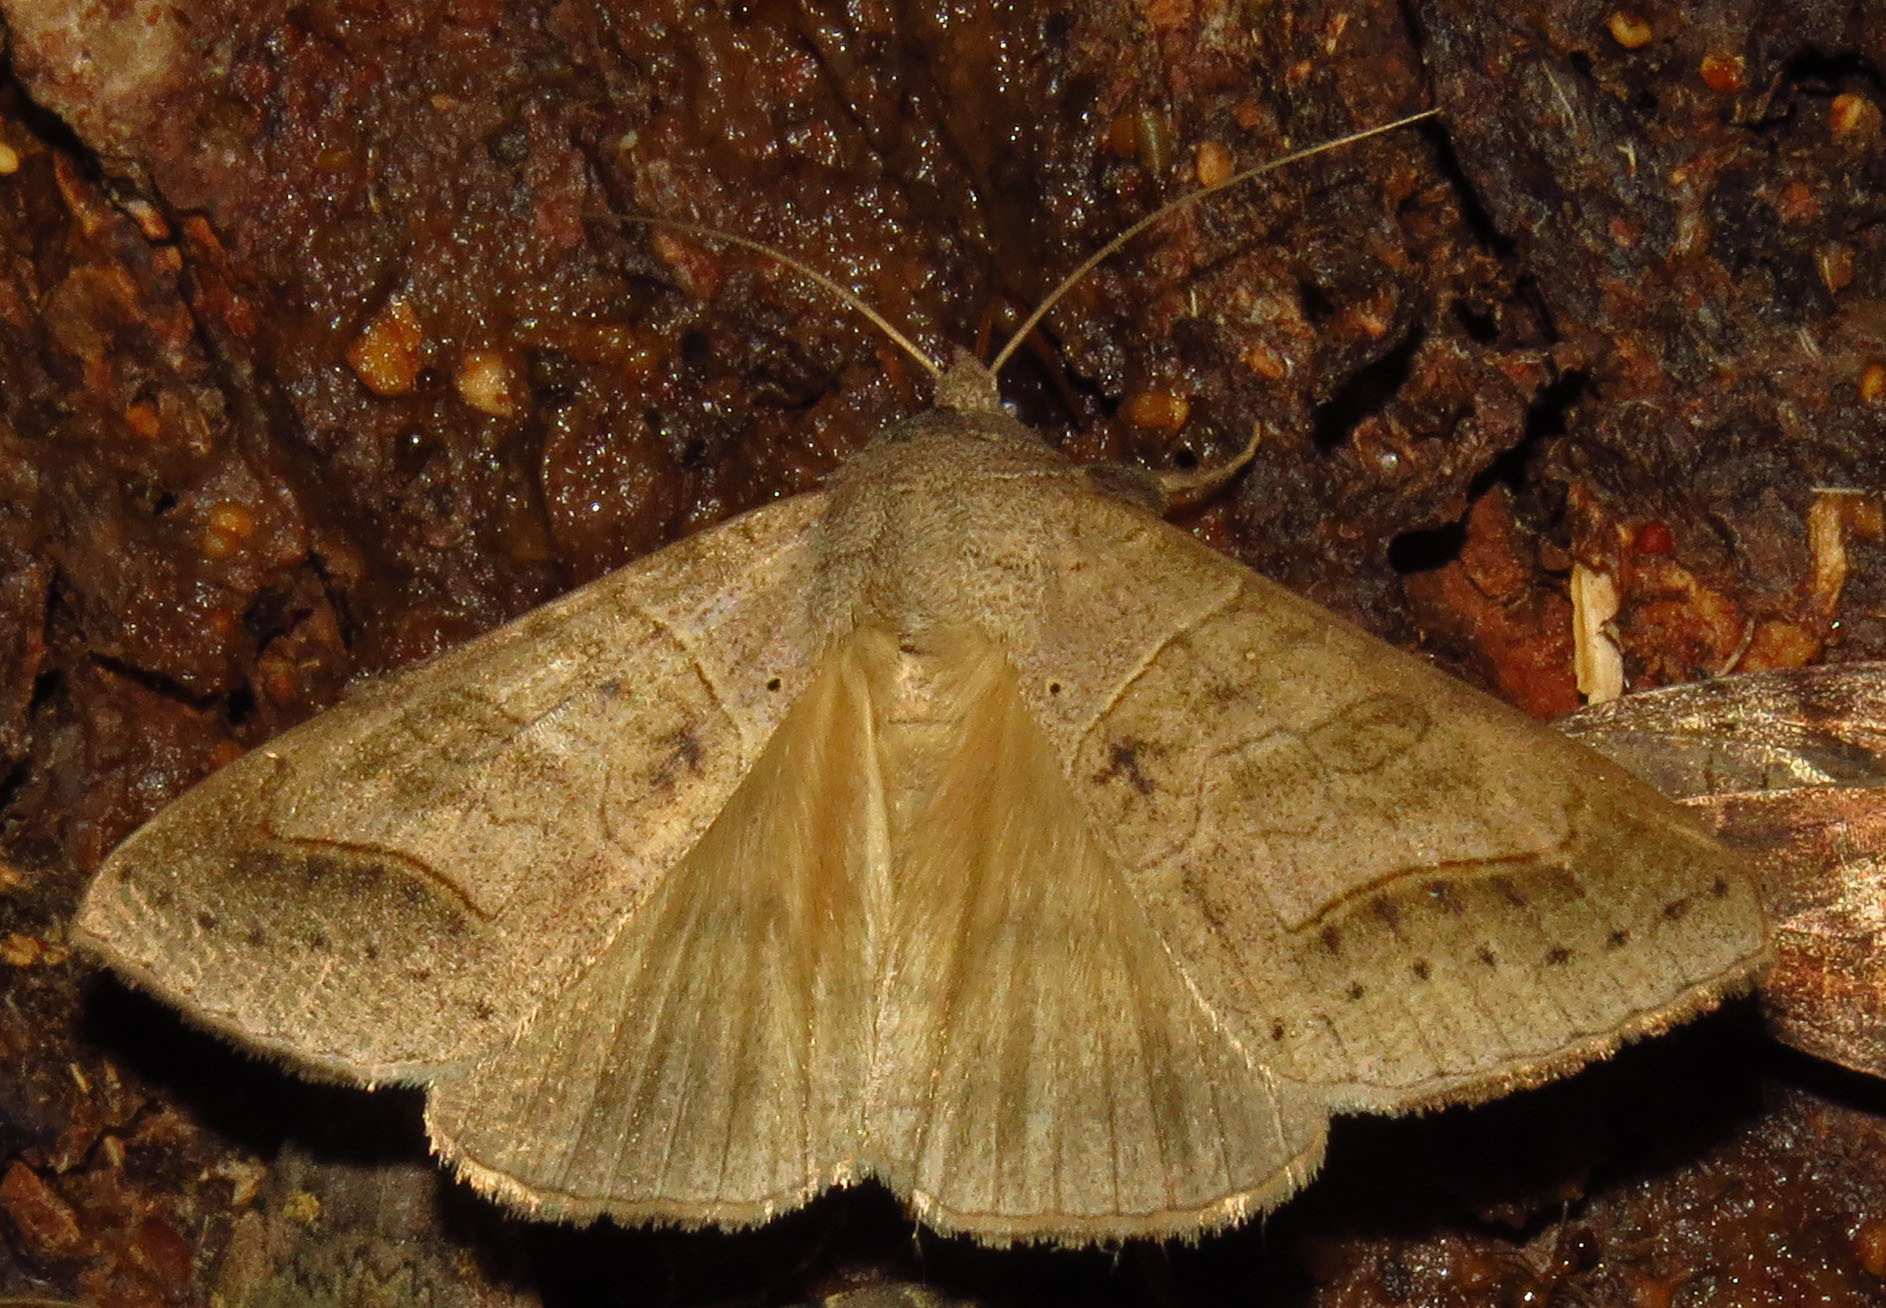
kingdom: Animalia
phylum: Arthropoda
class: Insecta
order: Lepidoptera
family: Erebidae
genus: Mocis
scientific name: Mocis marcida
